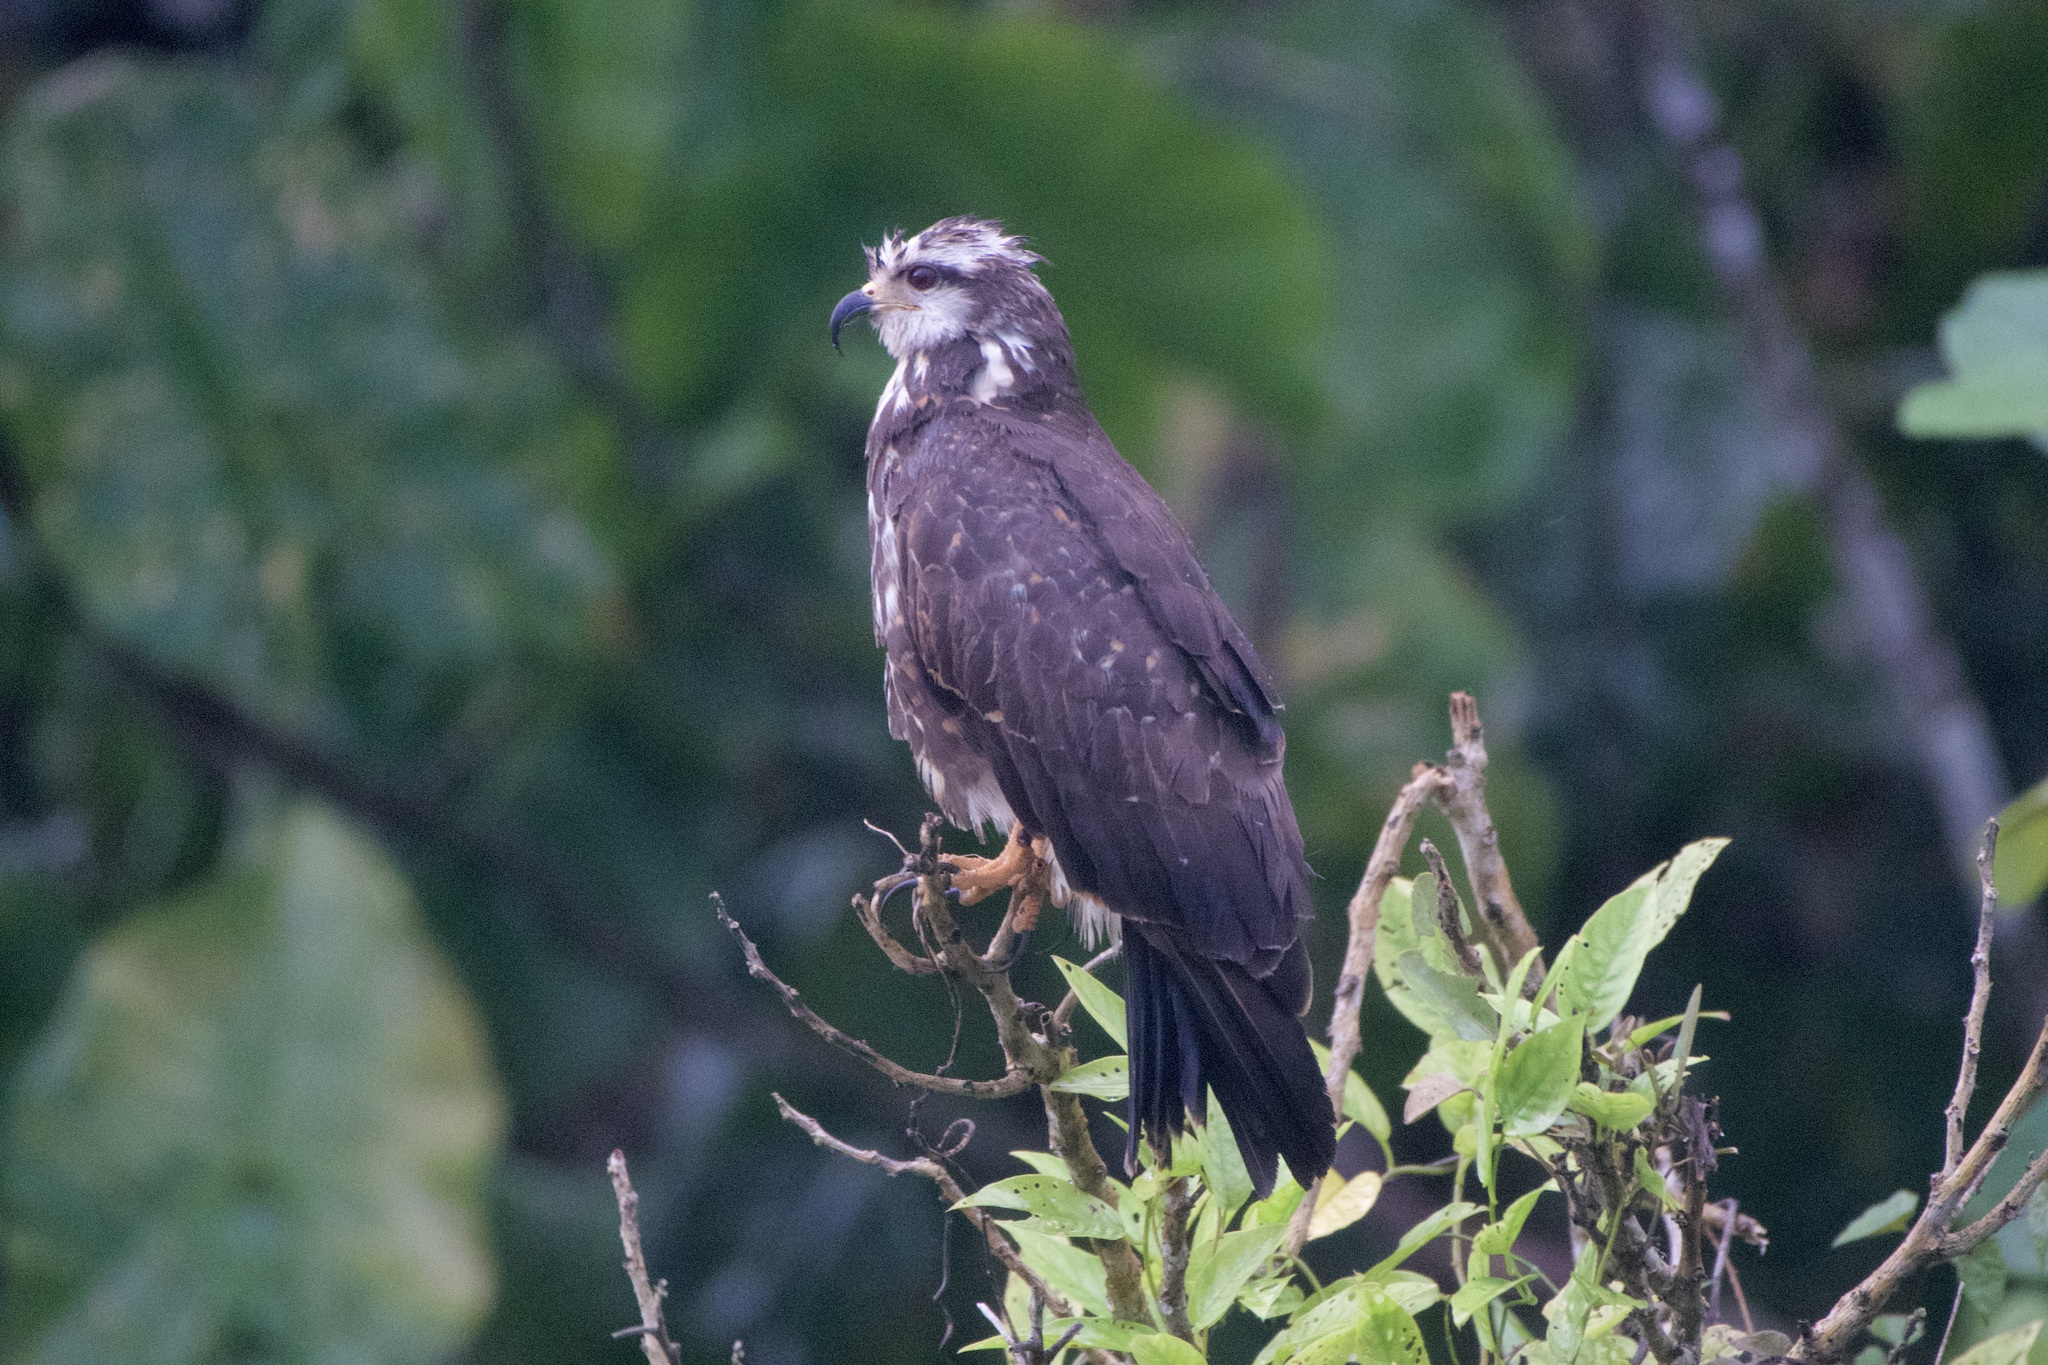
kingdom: Animalia
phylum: Chordata
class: Aves
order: Accipitriformes
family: Accipitridae
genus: Rostrhamus
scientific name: Rostrhamus sociabilis
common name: Snail kite
